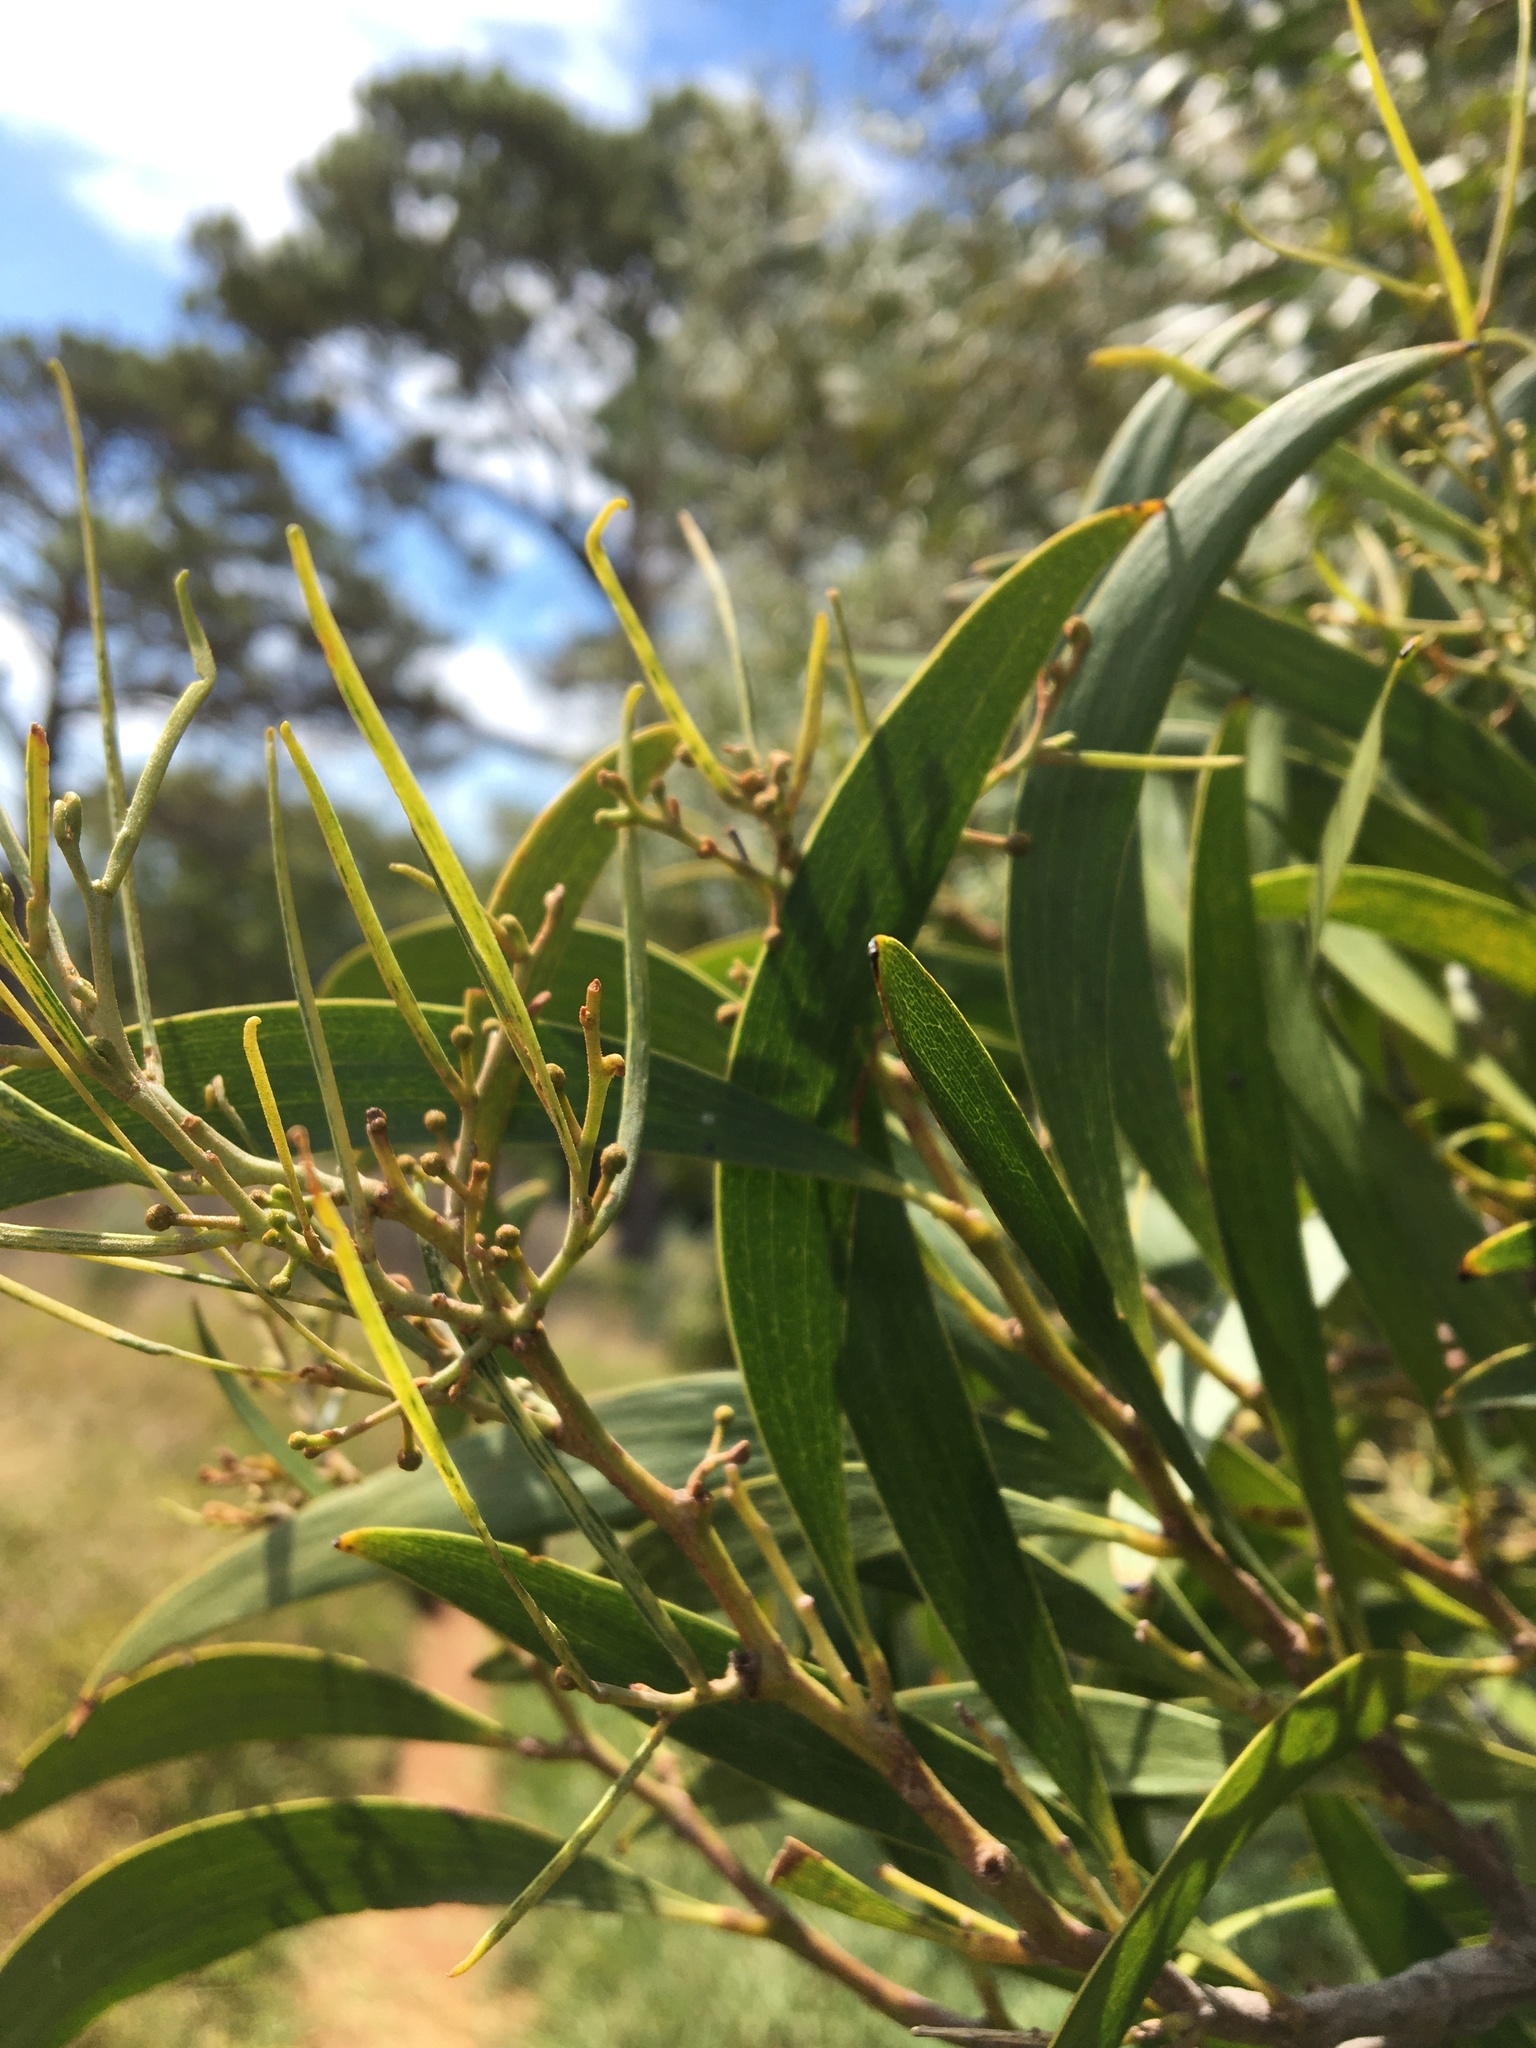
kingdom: Plantae
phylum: Tracheophyta
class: Magnoliopsida
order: Fabales
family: Fabaceae
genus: Acacia
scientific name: Acacia melanoxylon
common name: Blackwood
